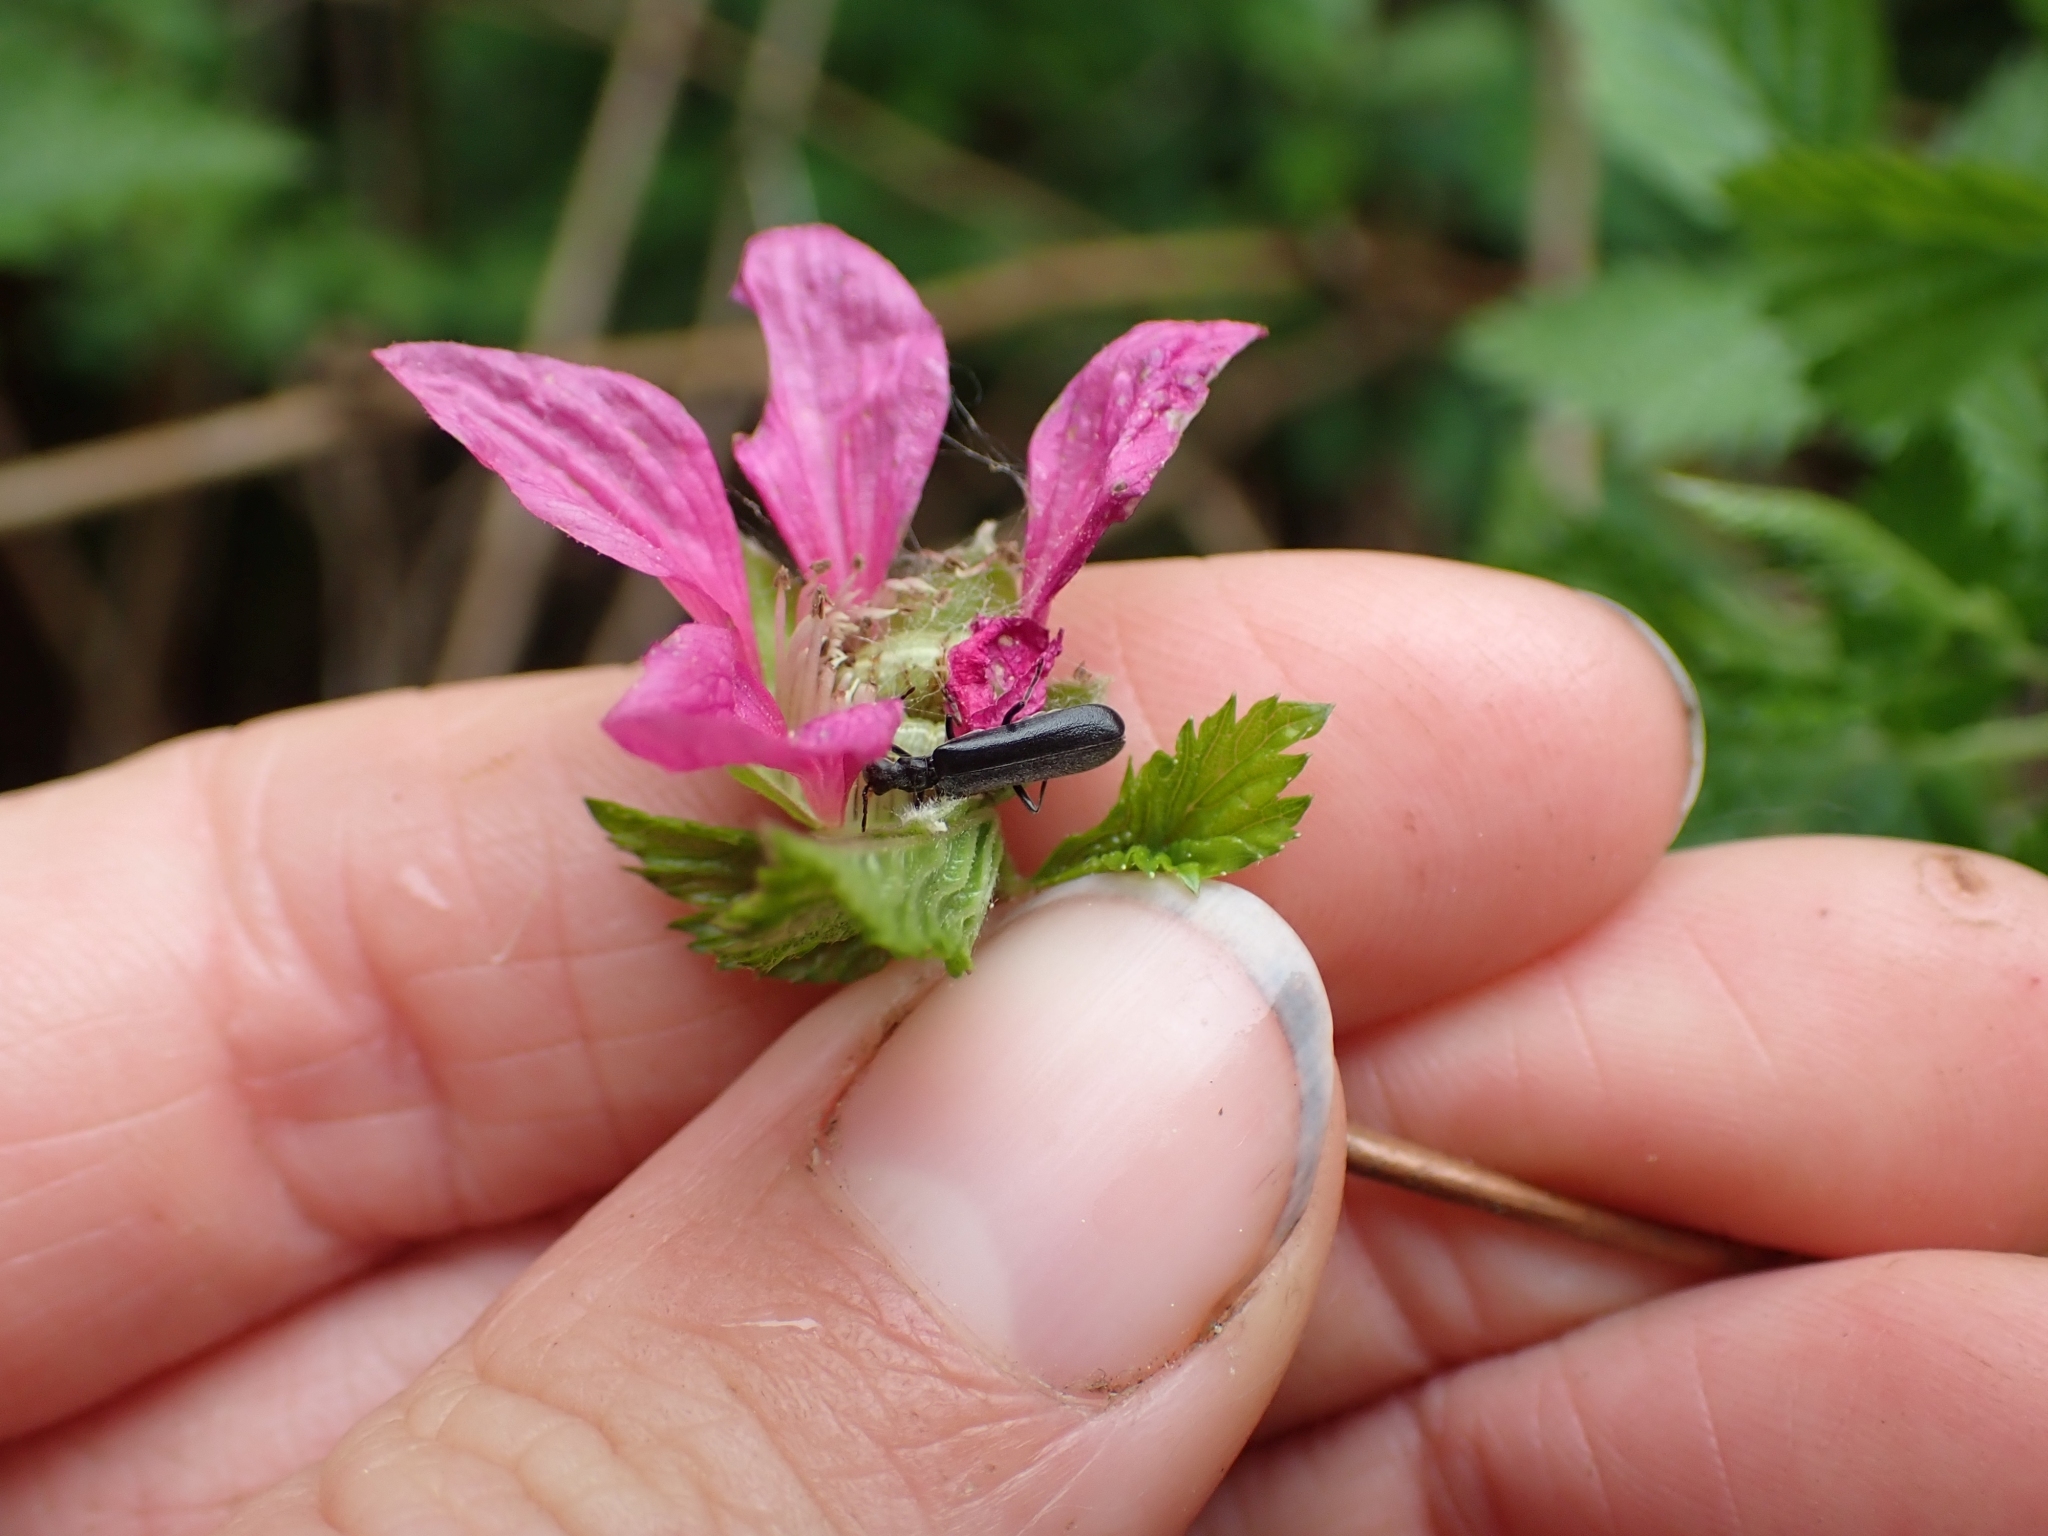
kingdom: Plantae
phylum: Tracheophyta
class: Magnoliopsida
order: Rosales
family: Rosaceae
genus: Rubus
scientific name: Rubus spectabilis
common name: Salmonberry
